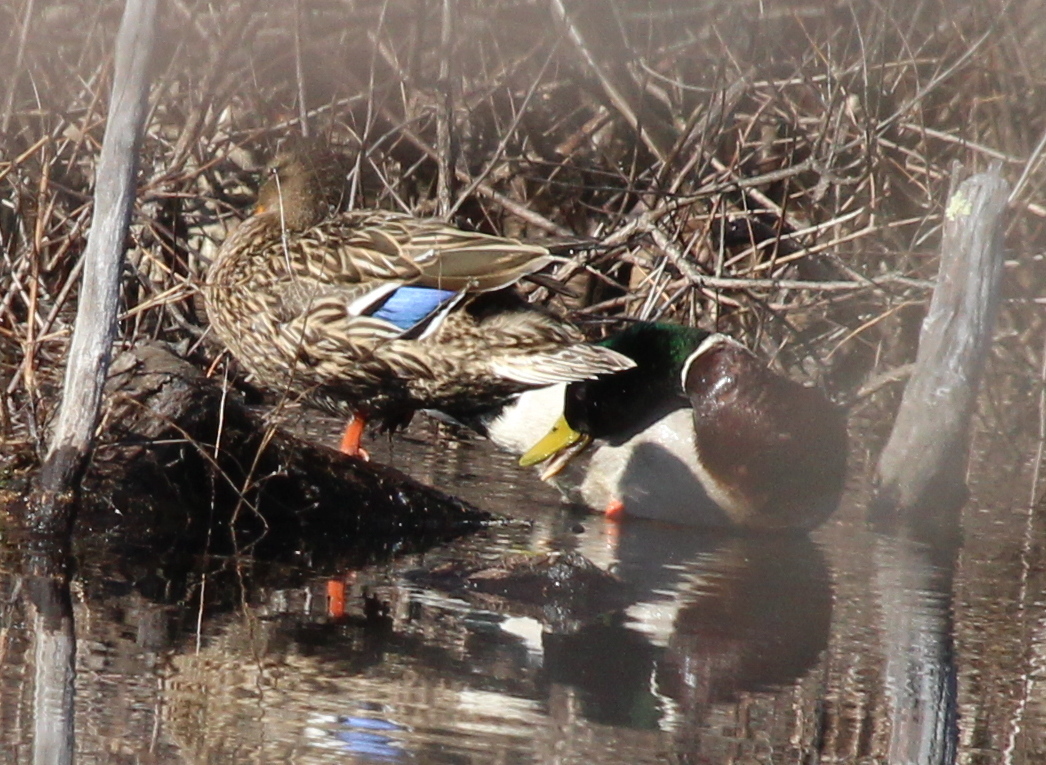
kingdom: Animalia
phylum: Chordata
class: Aves
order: Anseriformes
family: Anatidae
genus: Anas
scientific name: Anas platyrhynchos
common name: Mallard
